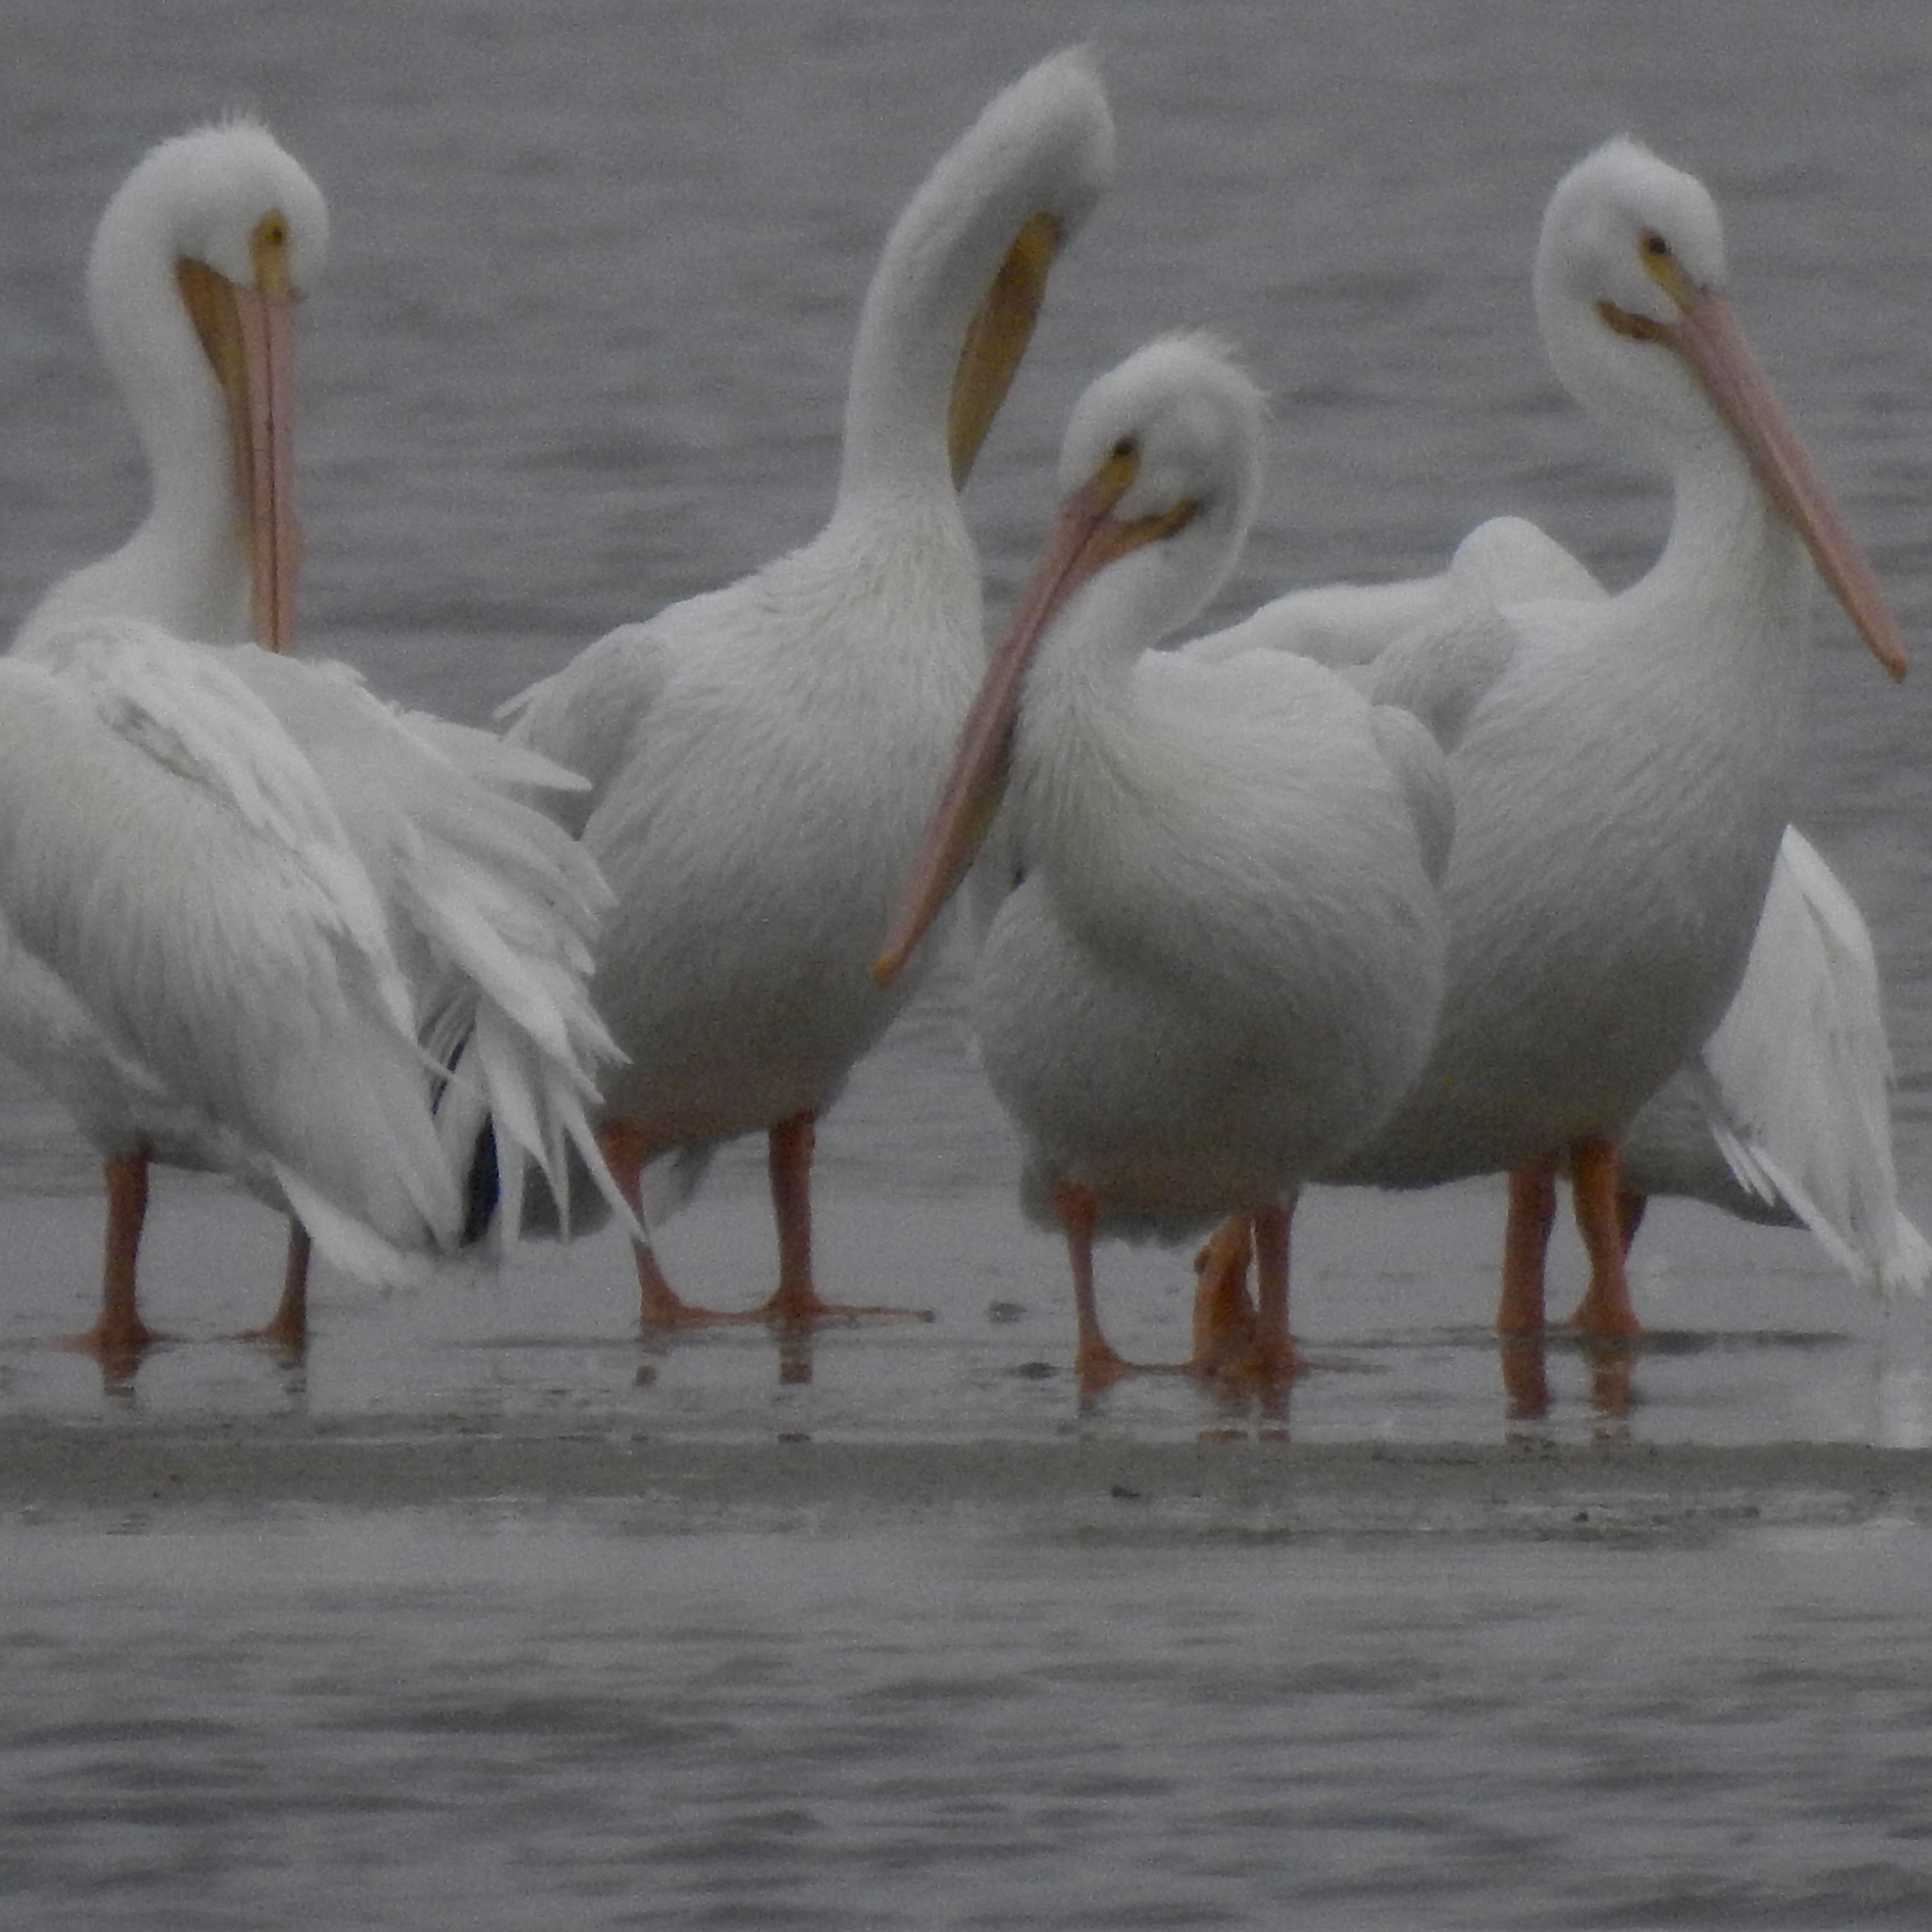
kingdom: Animalia
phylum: Chordata
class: Aves
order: Pelecaniformes
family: Pelecanidae
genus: Pelecanus
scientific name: Pelecanus erythrorhynchos
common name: American white pelican
